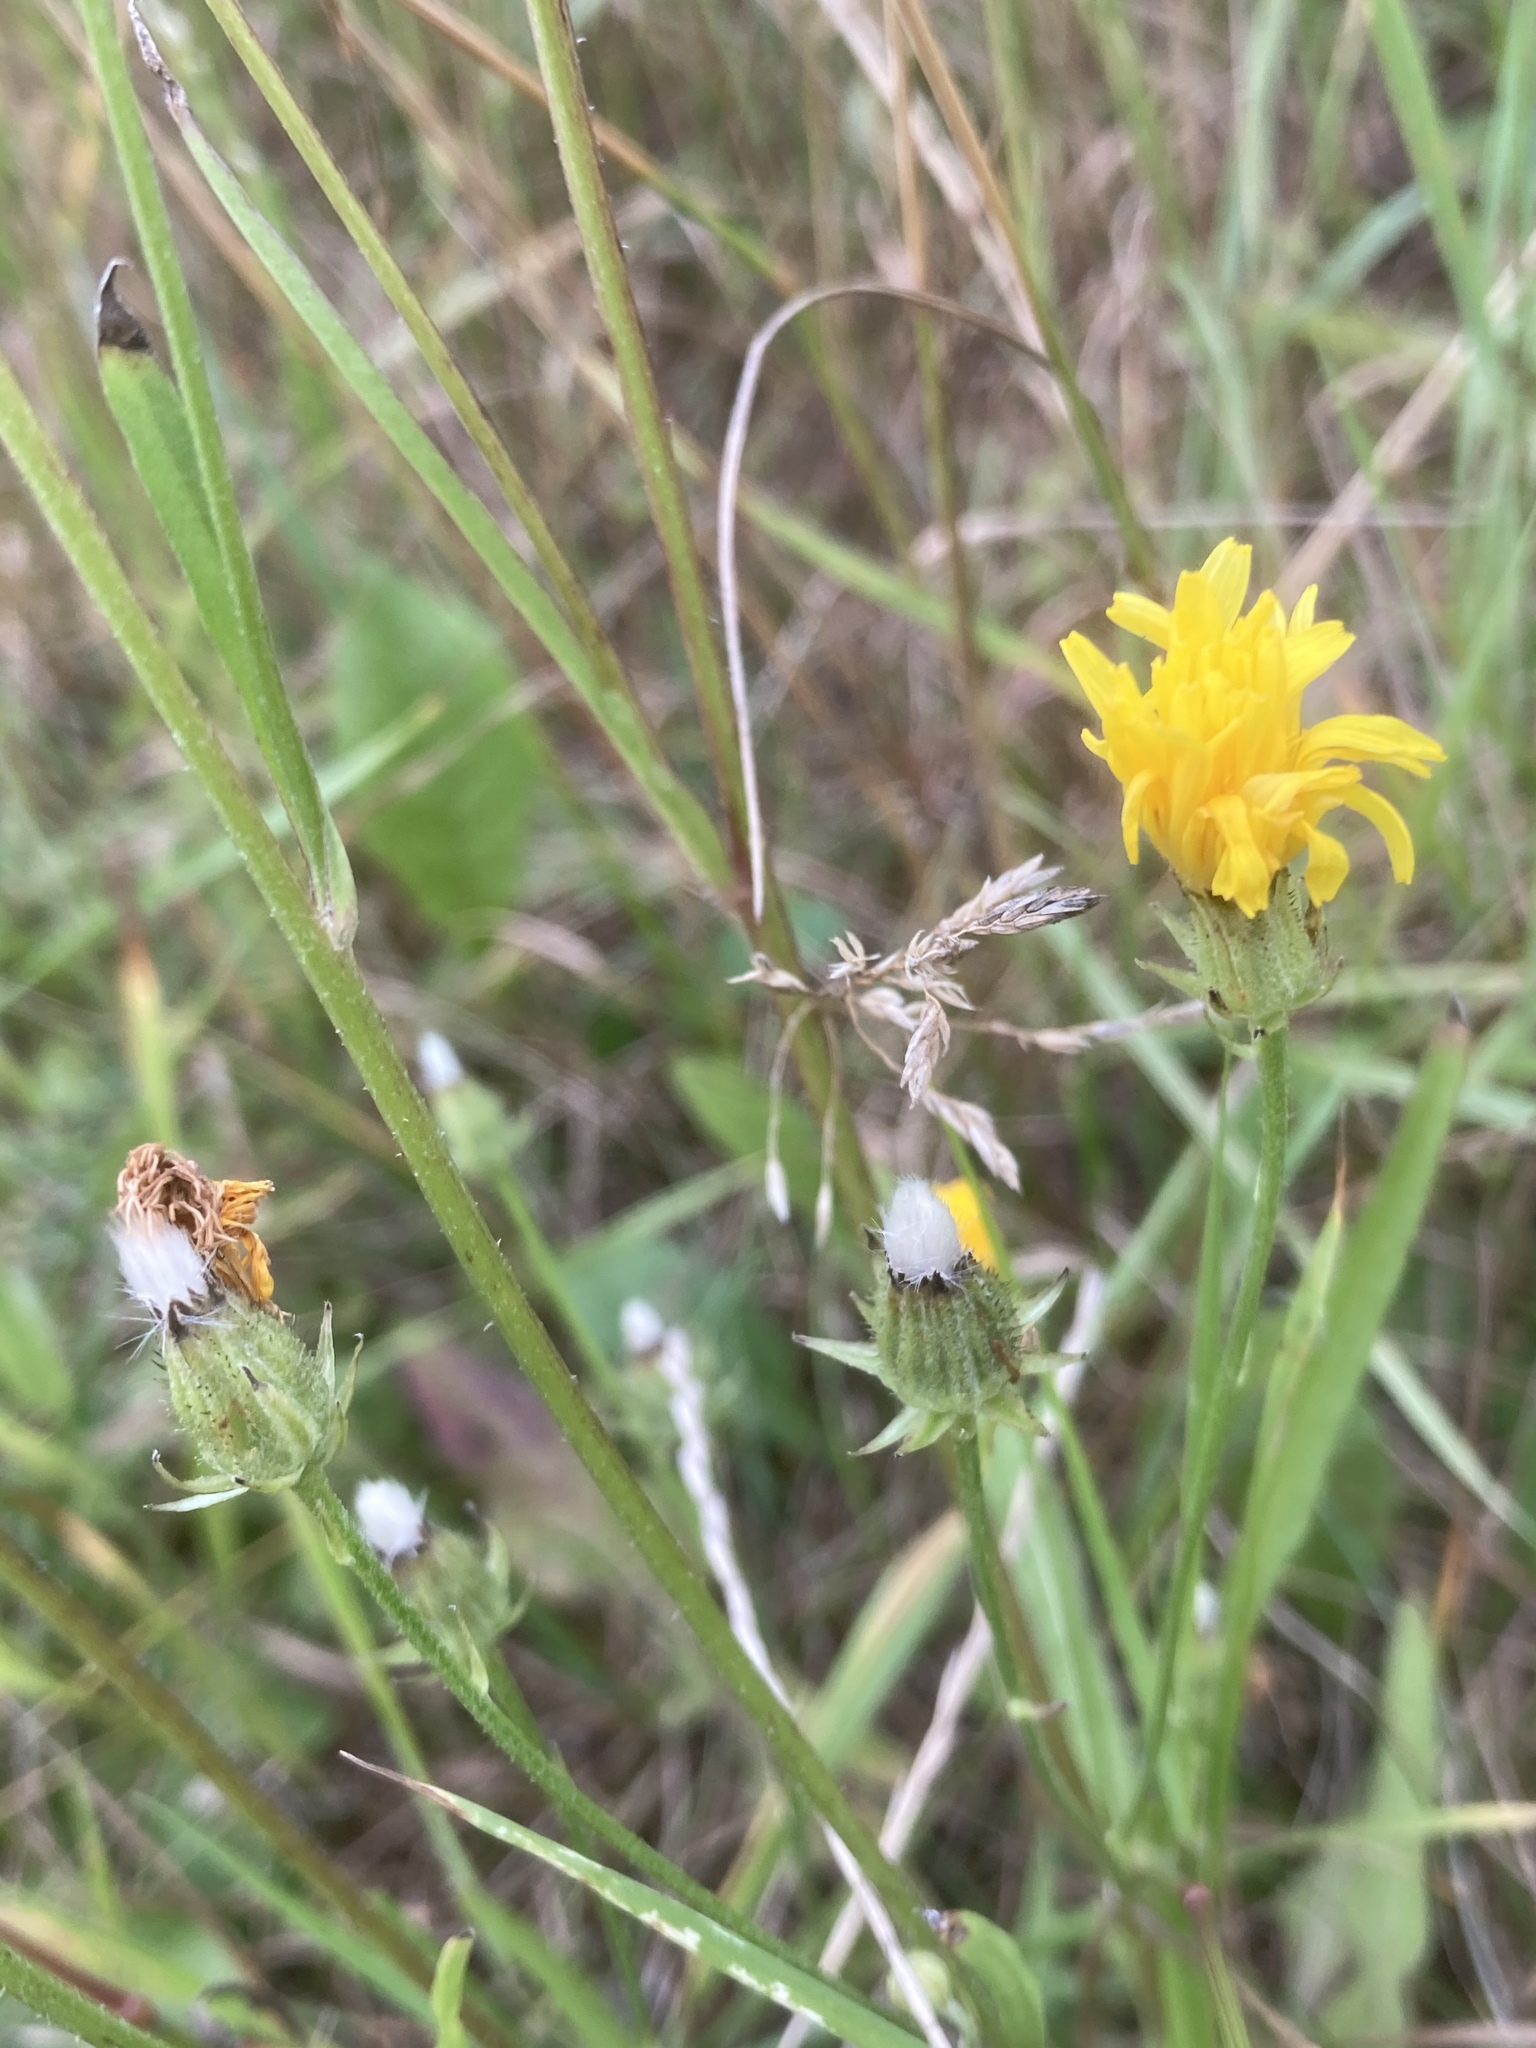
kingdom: Plantae
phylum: Tracheophyta
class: Magnoliopsida
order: Asterales
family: Asteraceae
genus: Picris
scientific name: Picris hieracioides
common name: Hawkweed oxtongue
